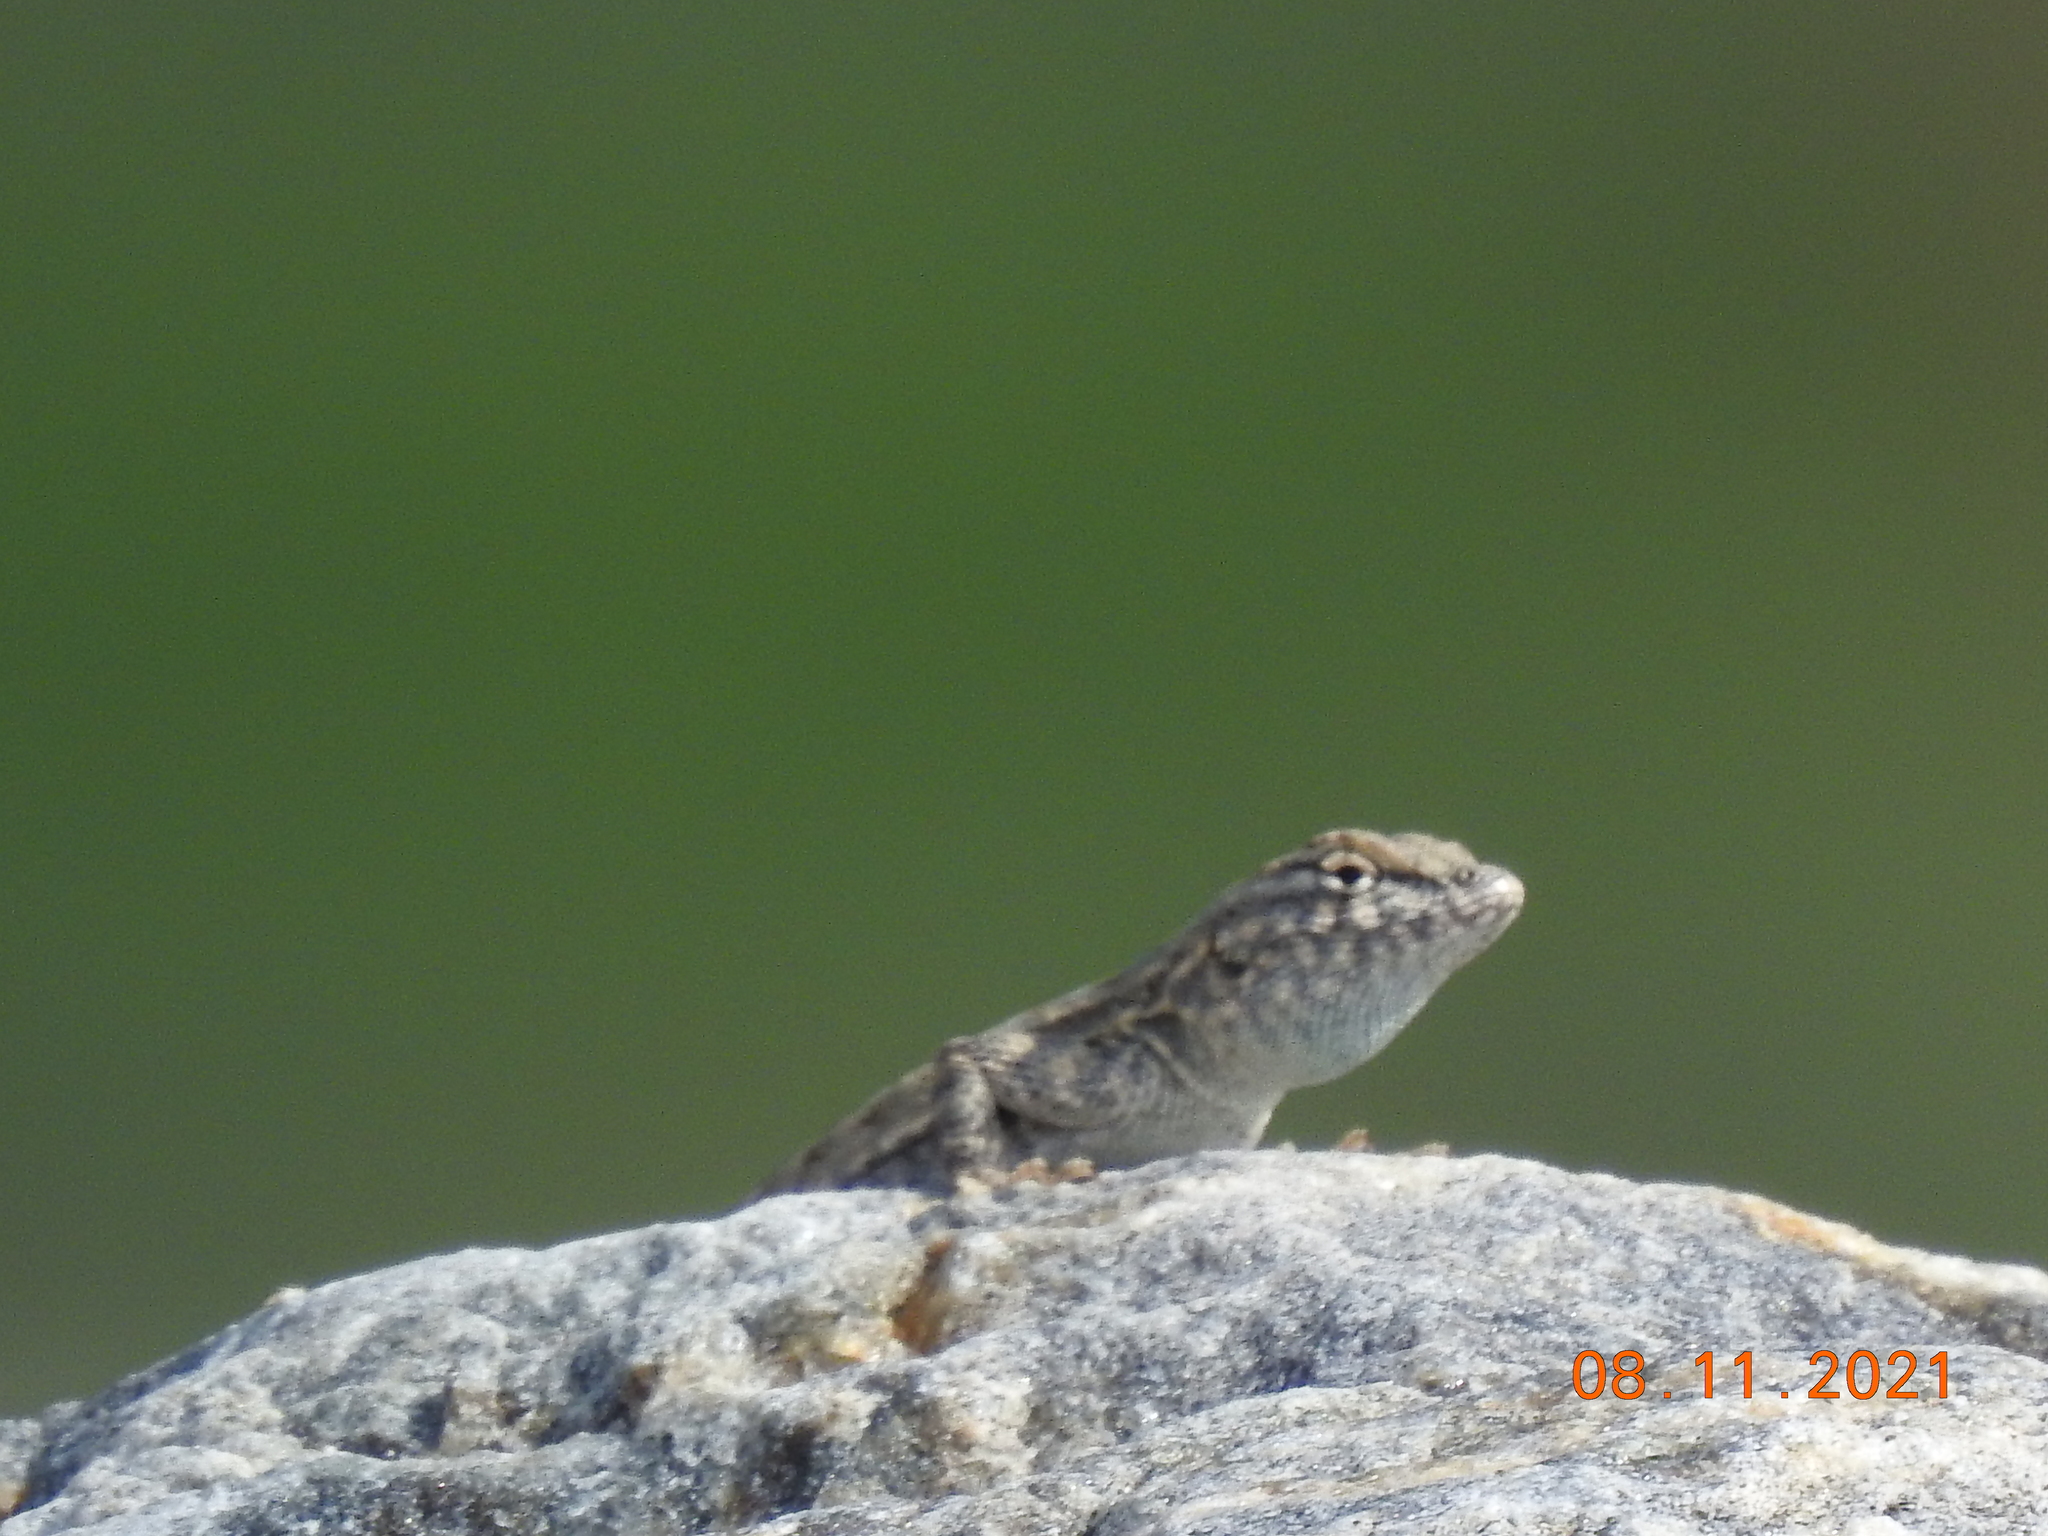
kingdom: Animalia
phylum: Chordata
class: Squamata
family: Phrynosomatidae
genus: Uta
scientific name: Uta stansburiana
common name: Side-blotched lizard
